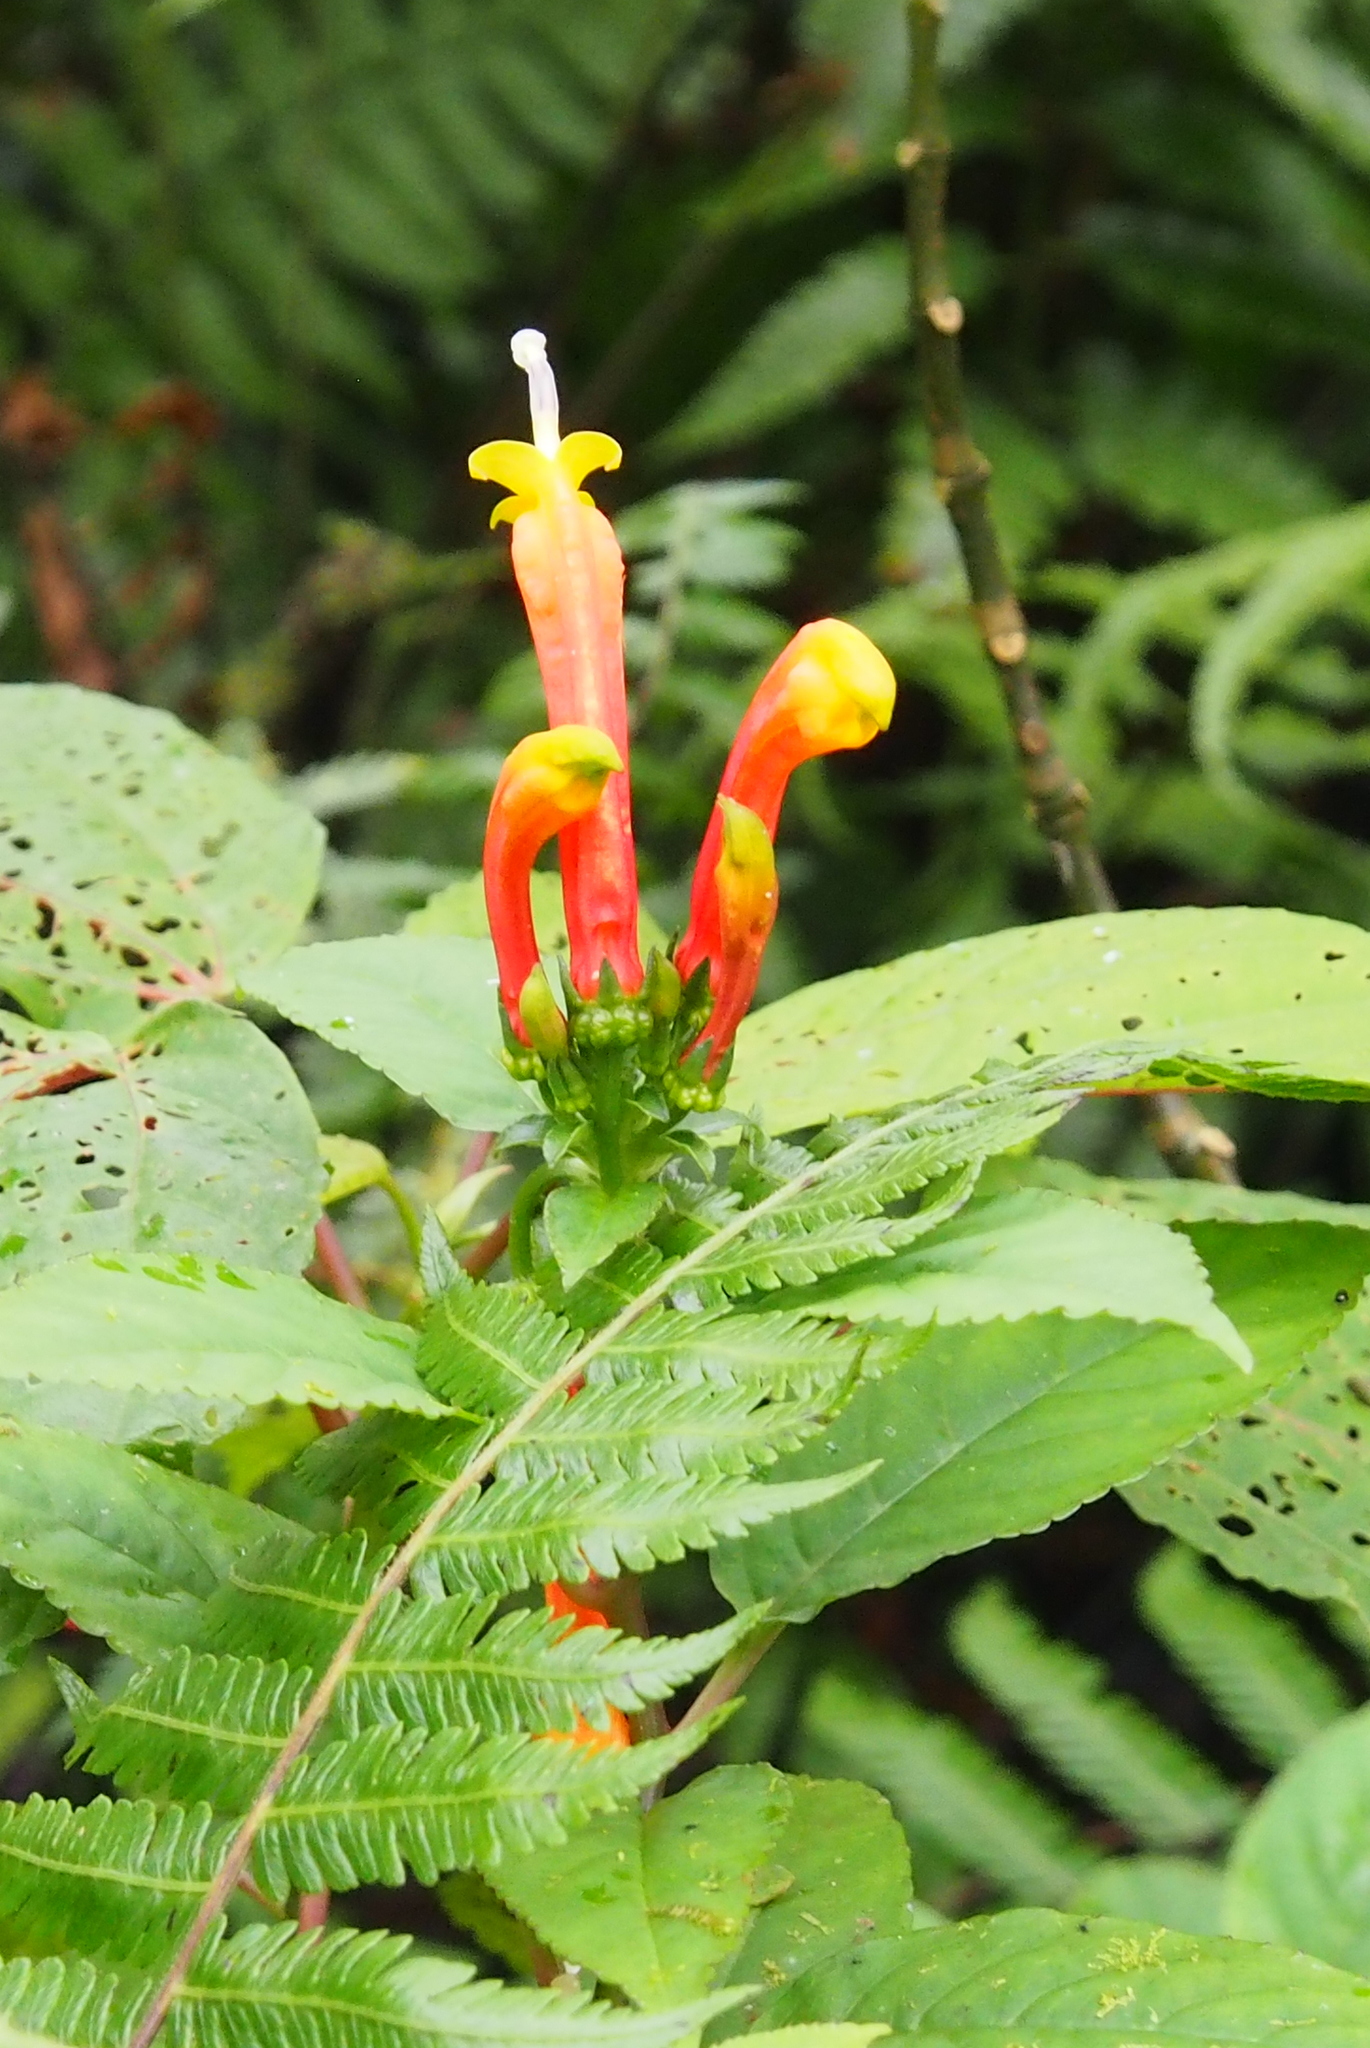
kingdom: Plantae
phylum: Tracheophyta
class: Magnoliopsida
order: Asterales
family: Campanulaceae
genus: Centropogon
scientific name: Centropogon granulosus
